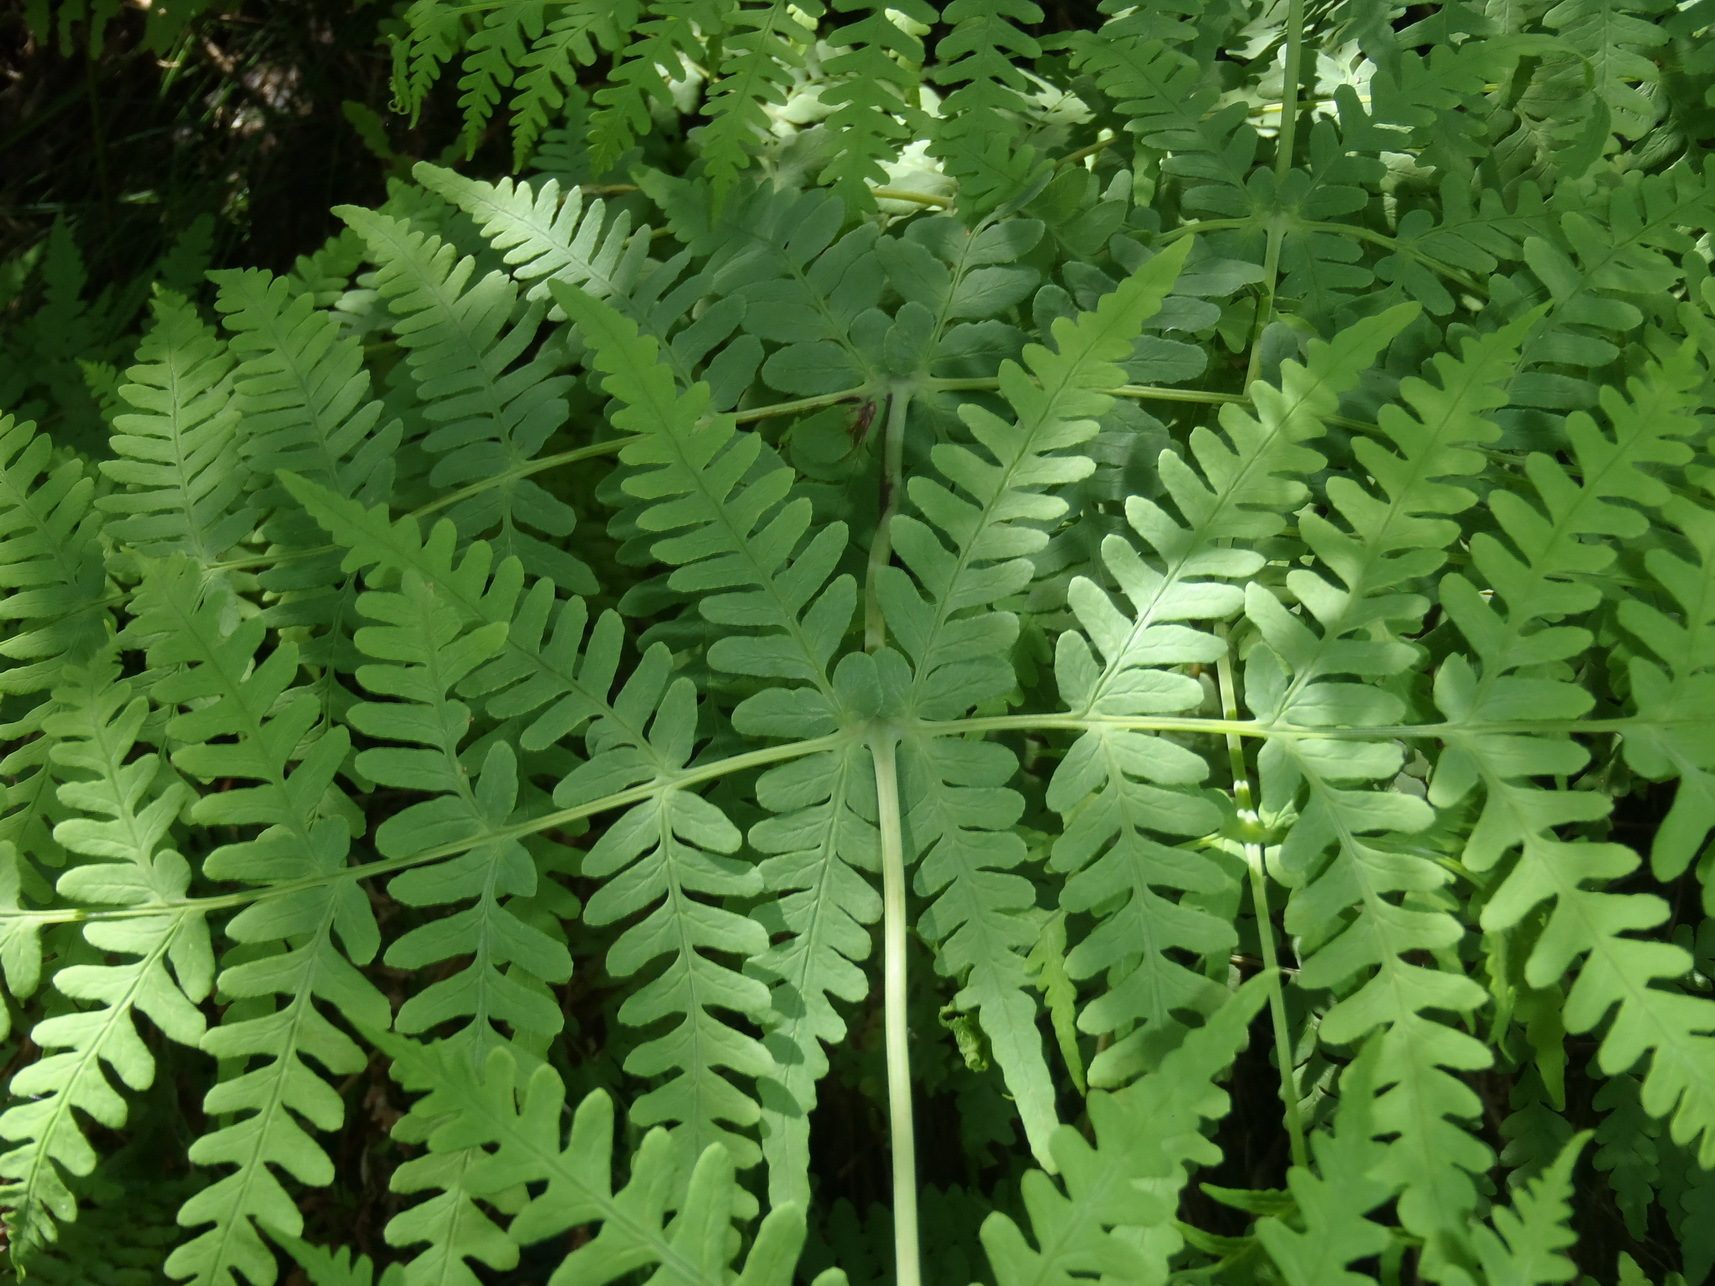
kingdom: Plantae
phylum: Tracheophyta
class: Polypodiopsida
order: Polypodiales
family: Dennstaedtiaceae
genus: Histiopteris
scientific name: Histiopteris incisa
